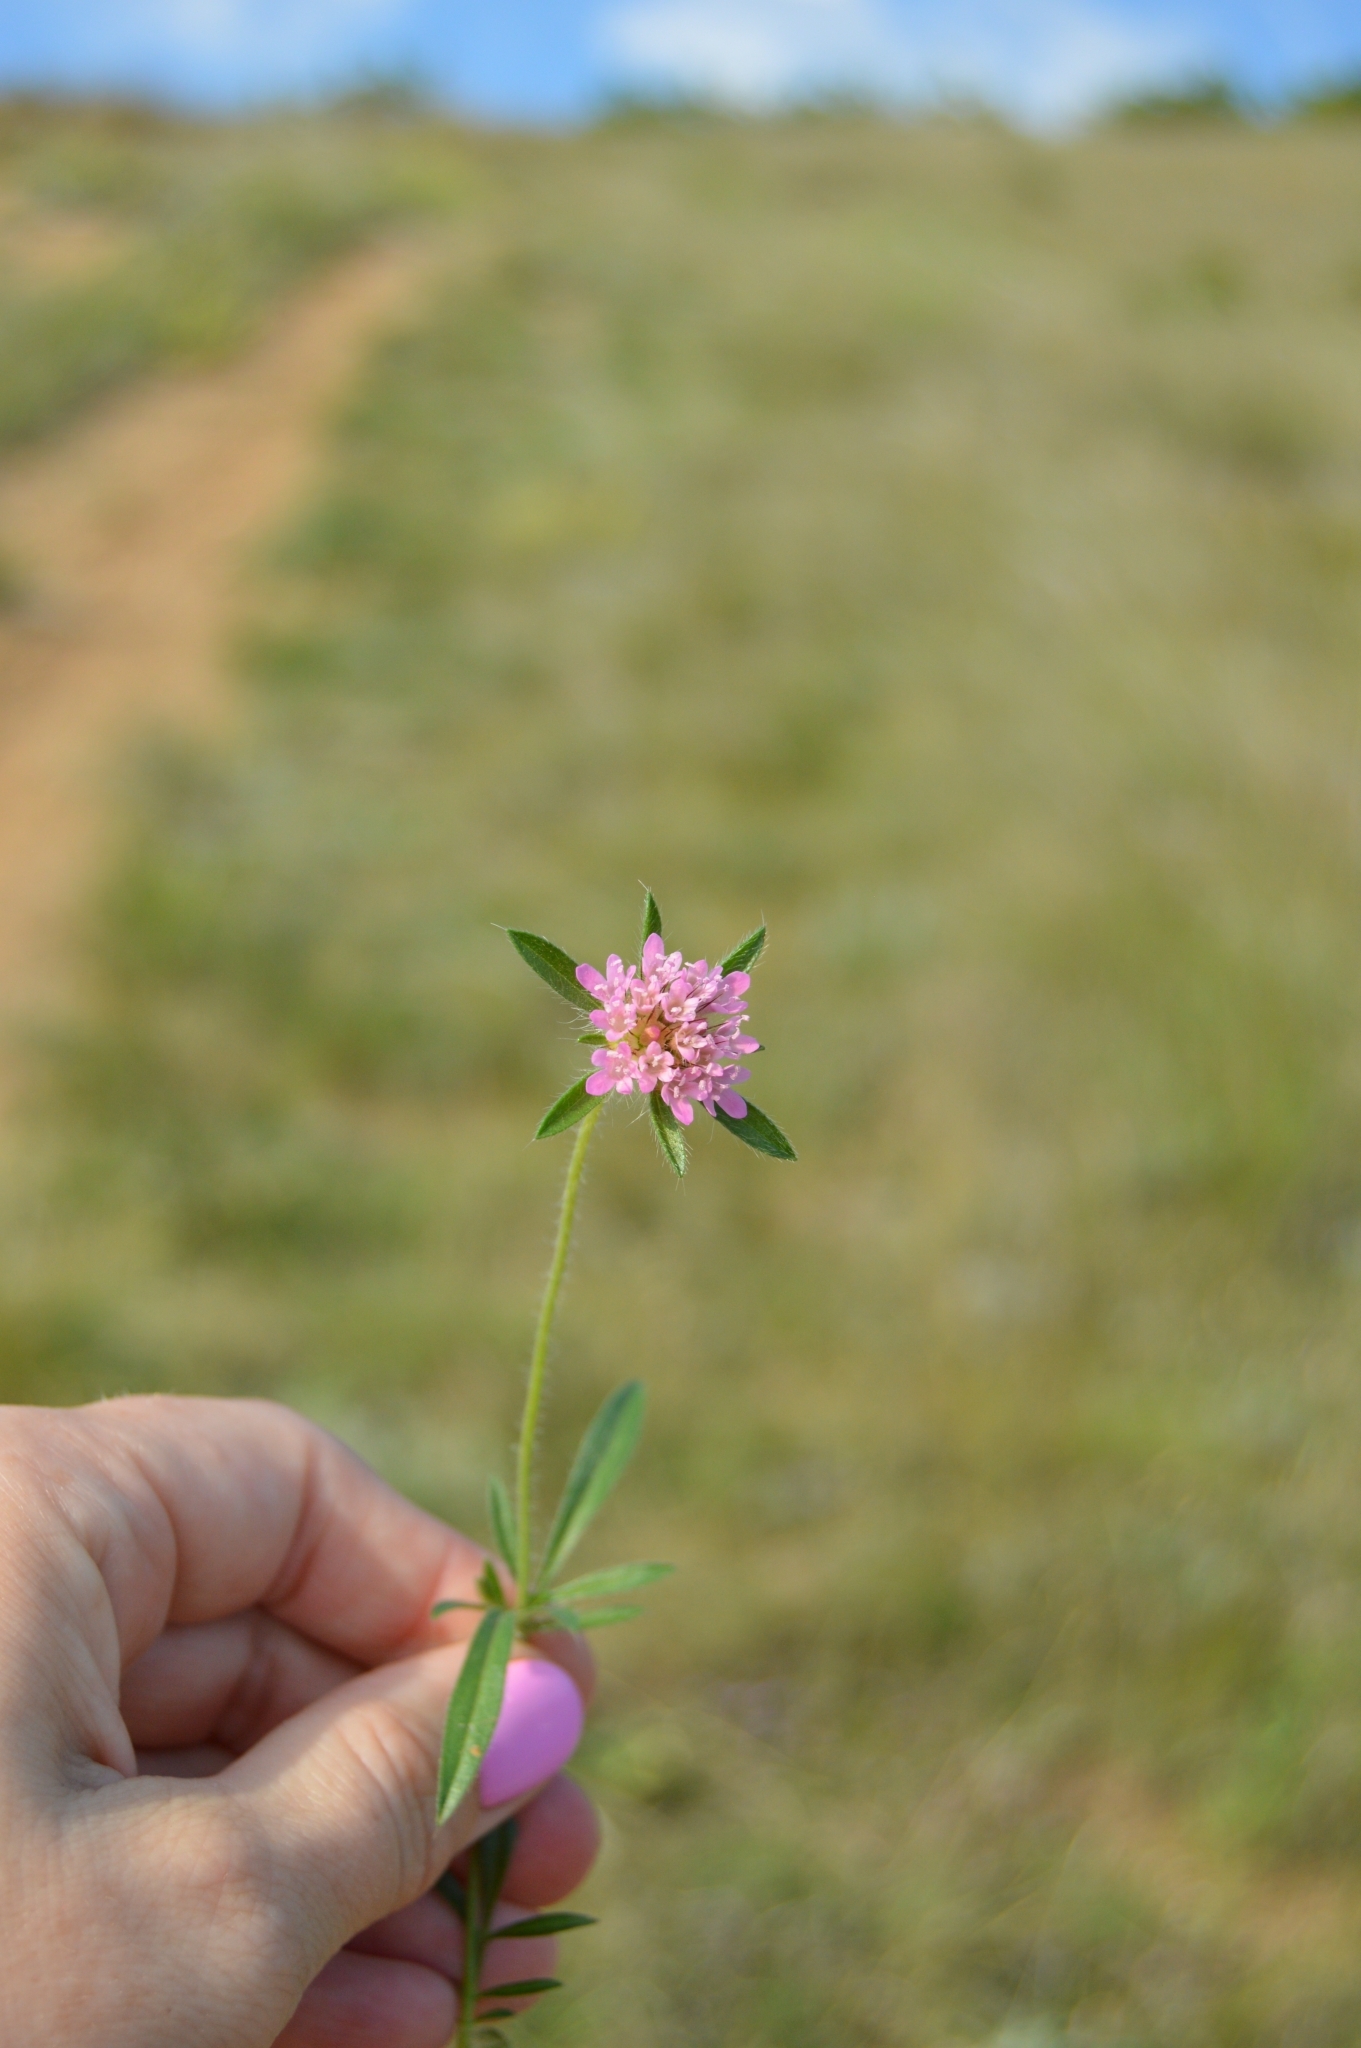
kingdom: Plantae
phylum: Tracheophyta
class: Magnoliopsida
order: Dipsacales
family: Caprifoliaceae
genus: Lomelosia
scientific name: Lomelosia micrantha
